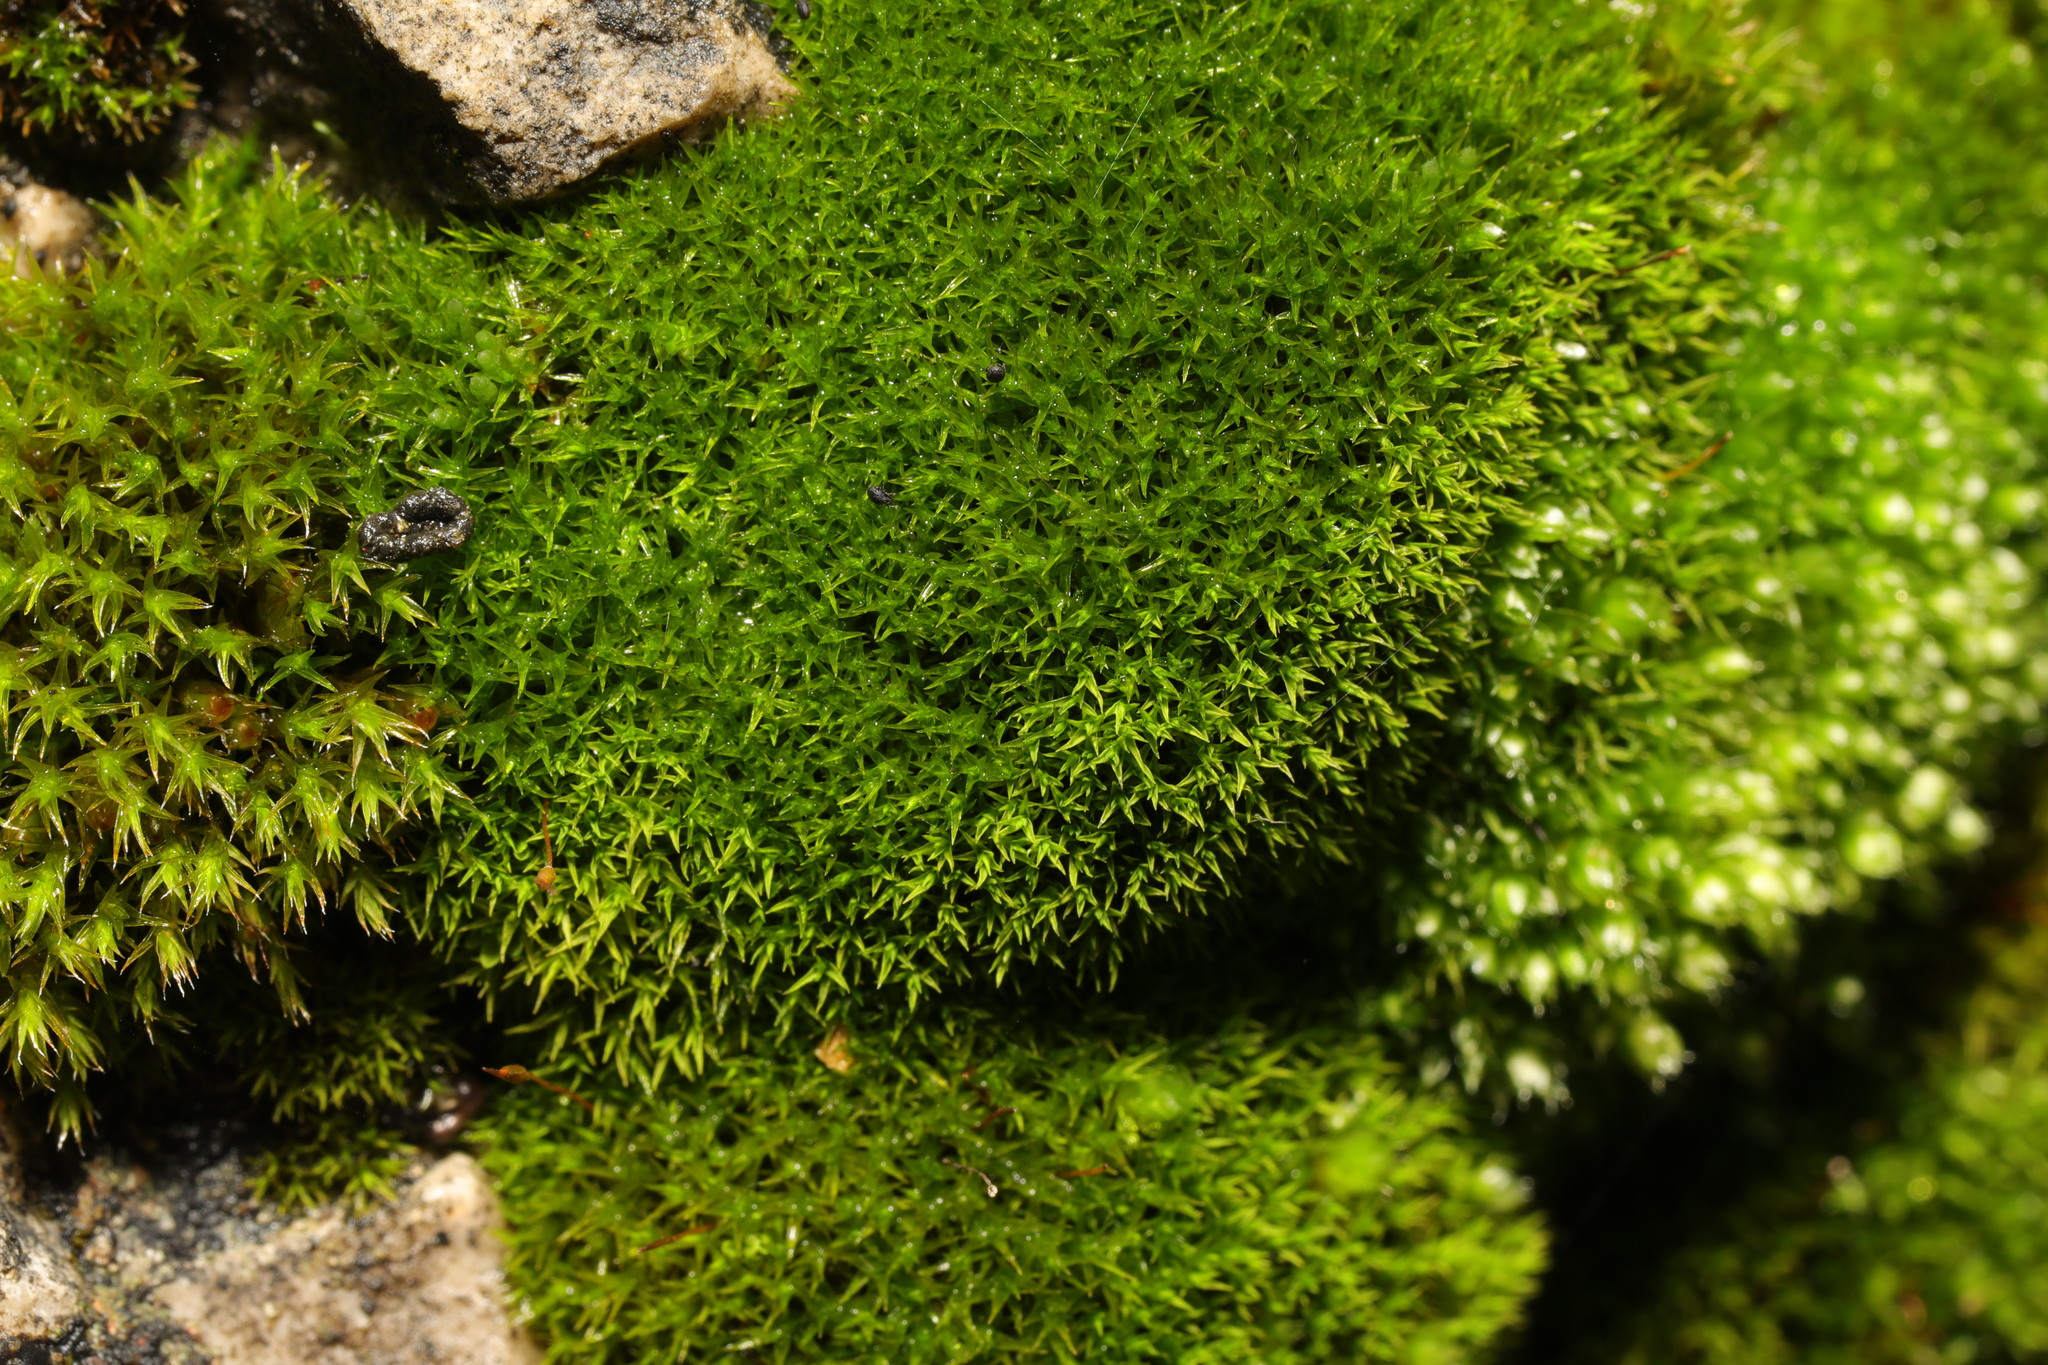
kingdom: Plantae
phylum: Bryophyta
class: Bryopsida
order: Dicranales
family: Ditrichaceae
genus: Ceratodon
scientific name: Ceratodon purpureus
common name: Redshank
